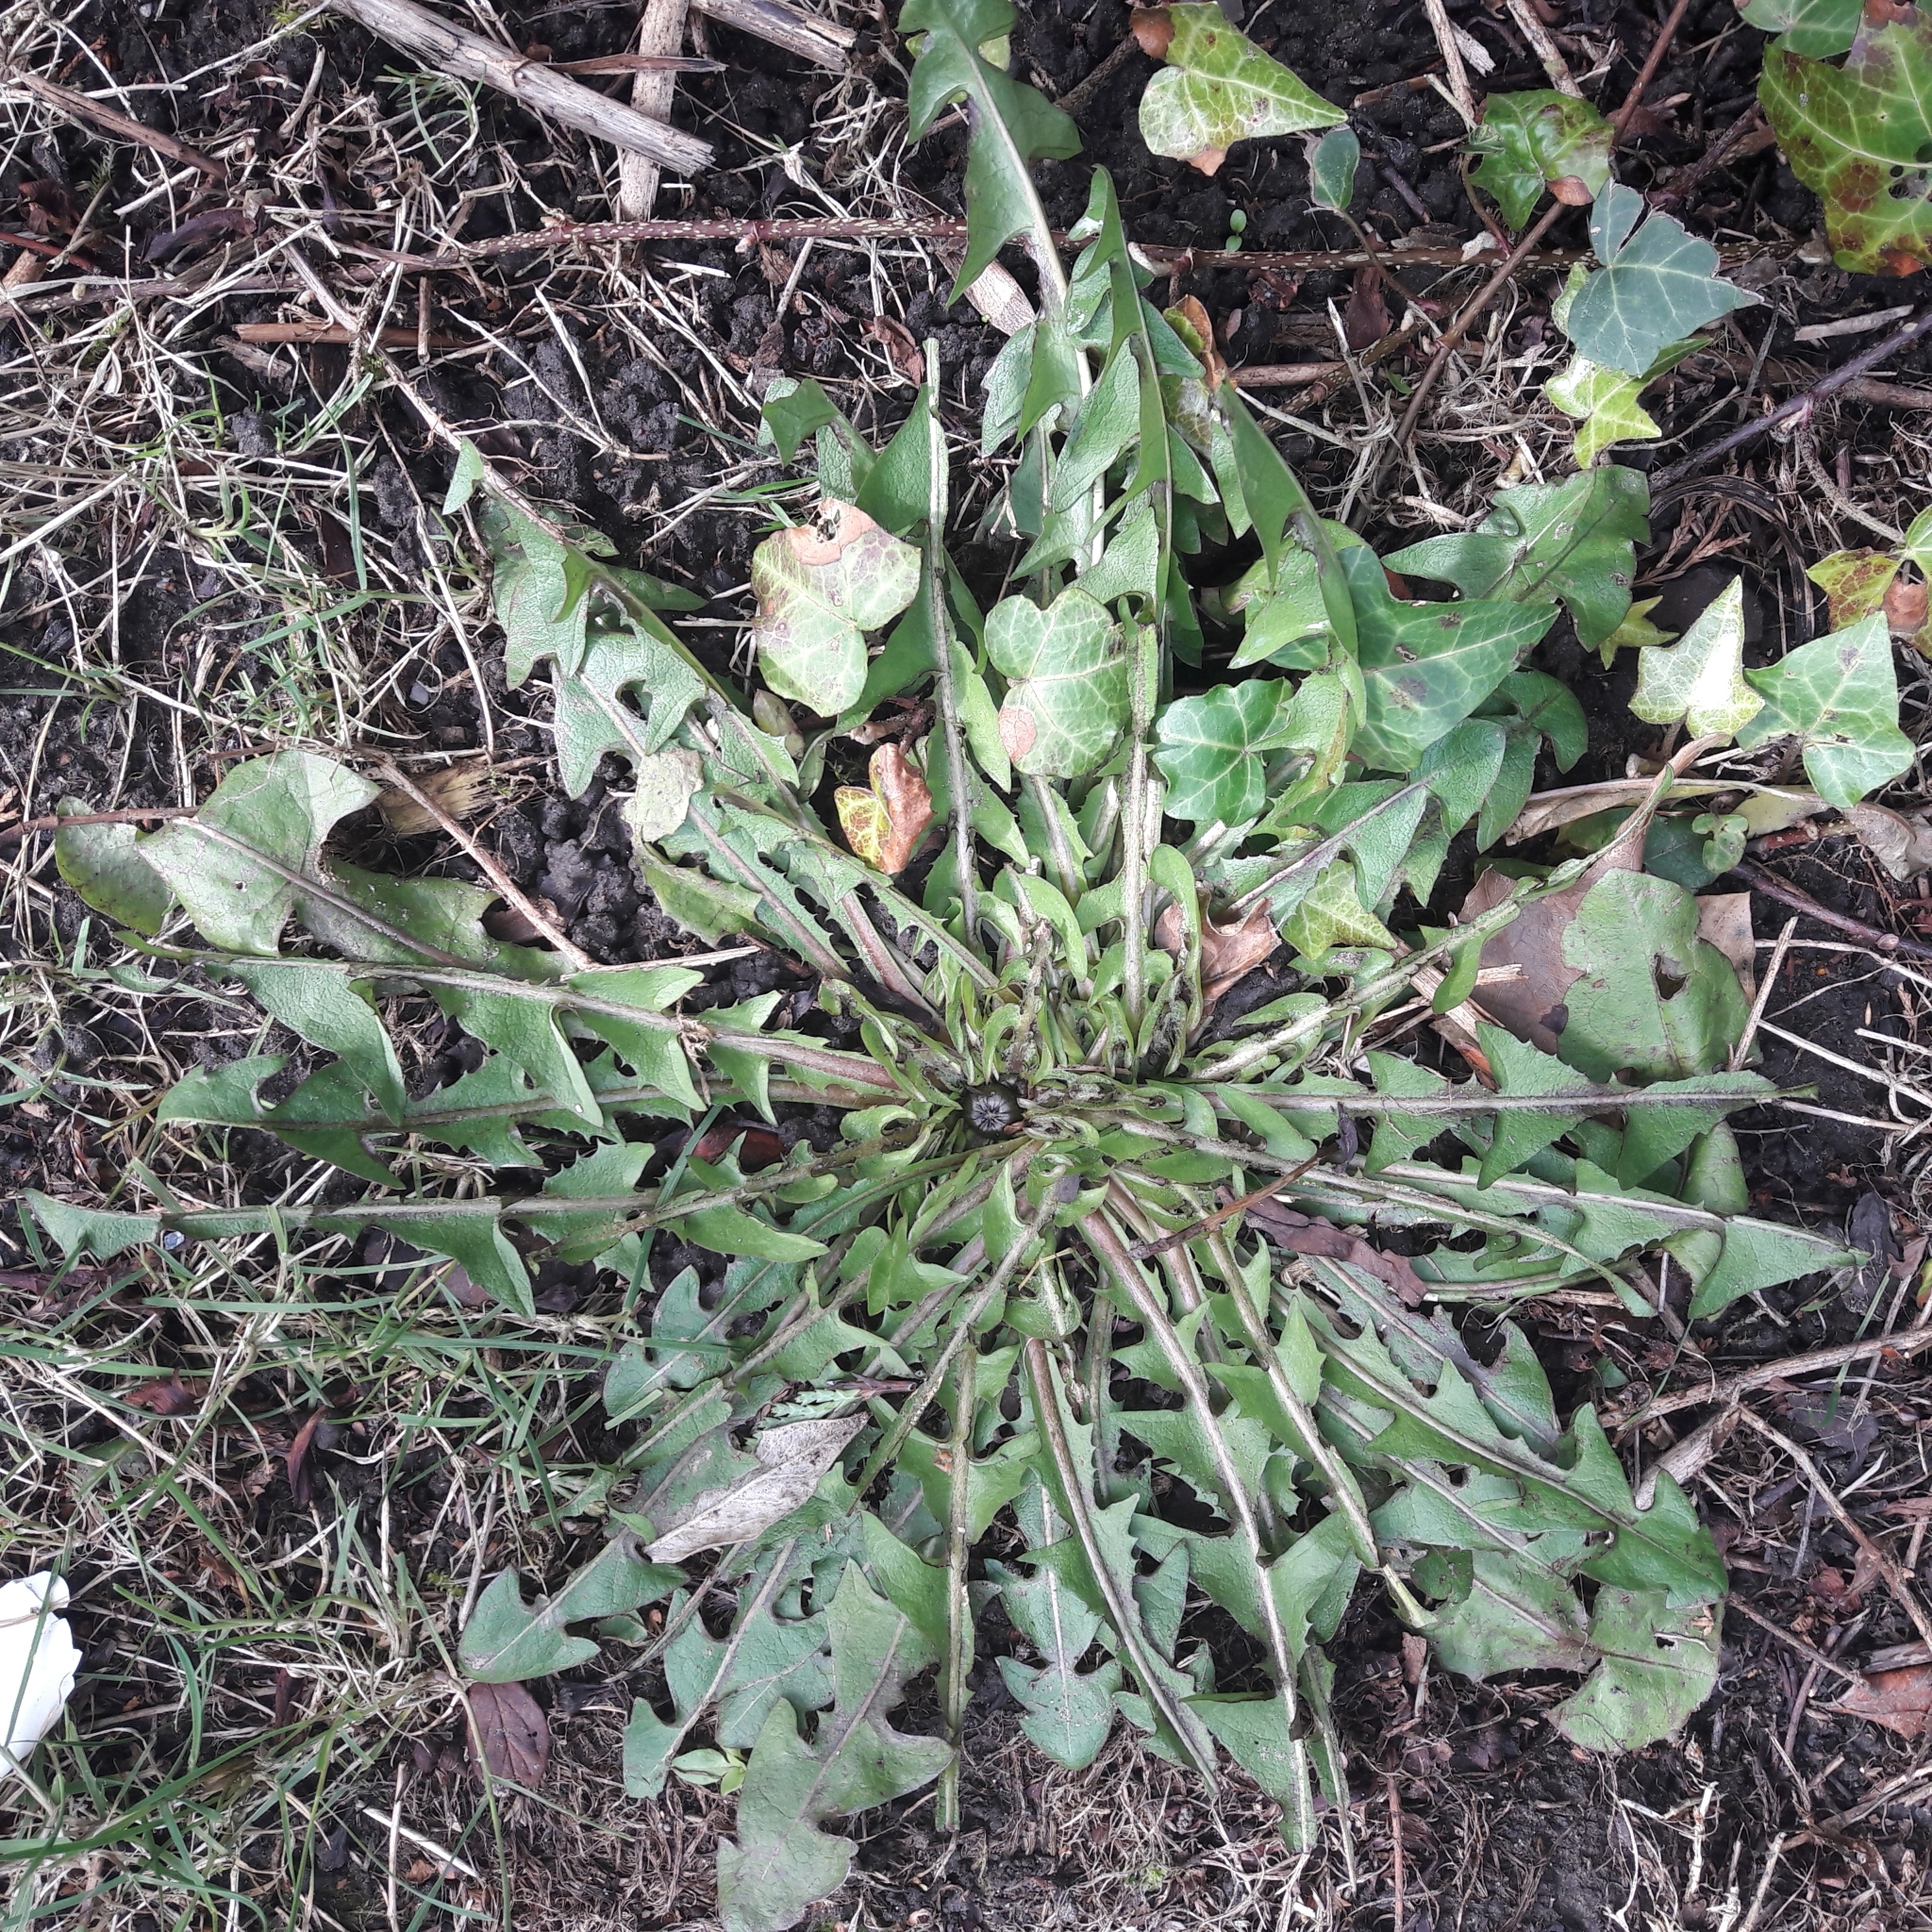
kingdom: Plantae
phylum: Tracheophyta
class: Magnoliopsida
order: Asterales
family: Asteraceae
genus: Taraxacum
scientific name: Taraxacum officinale
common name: Common dandelion
